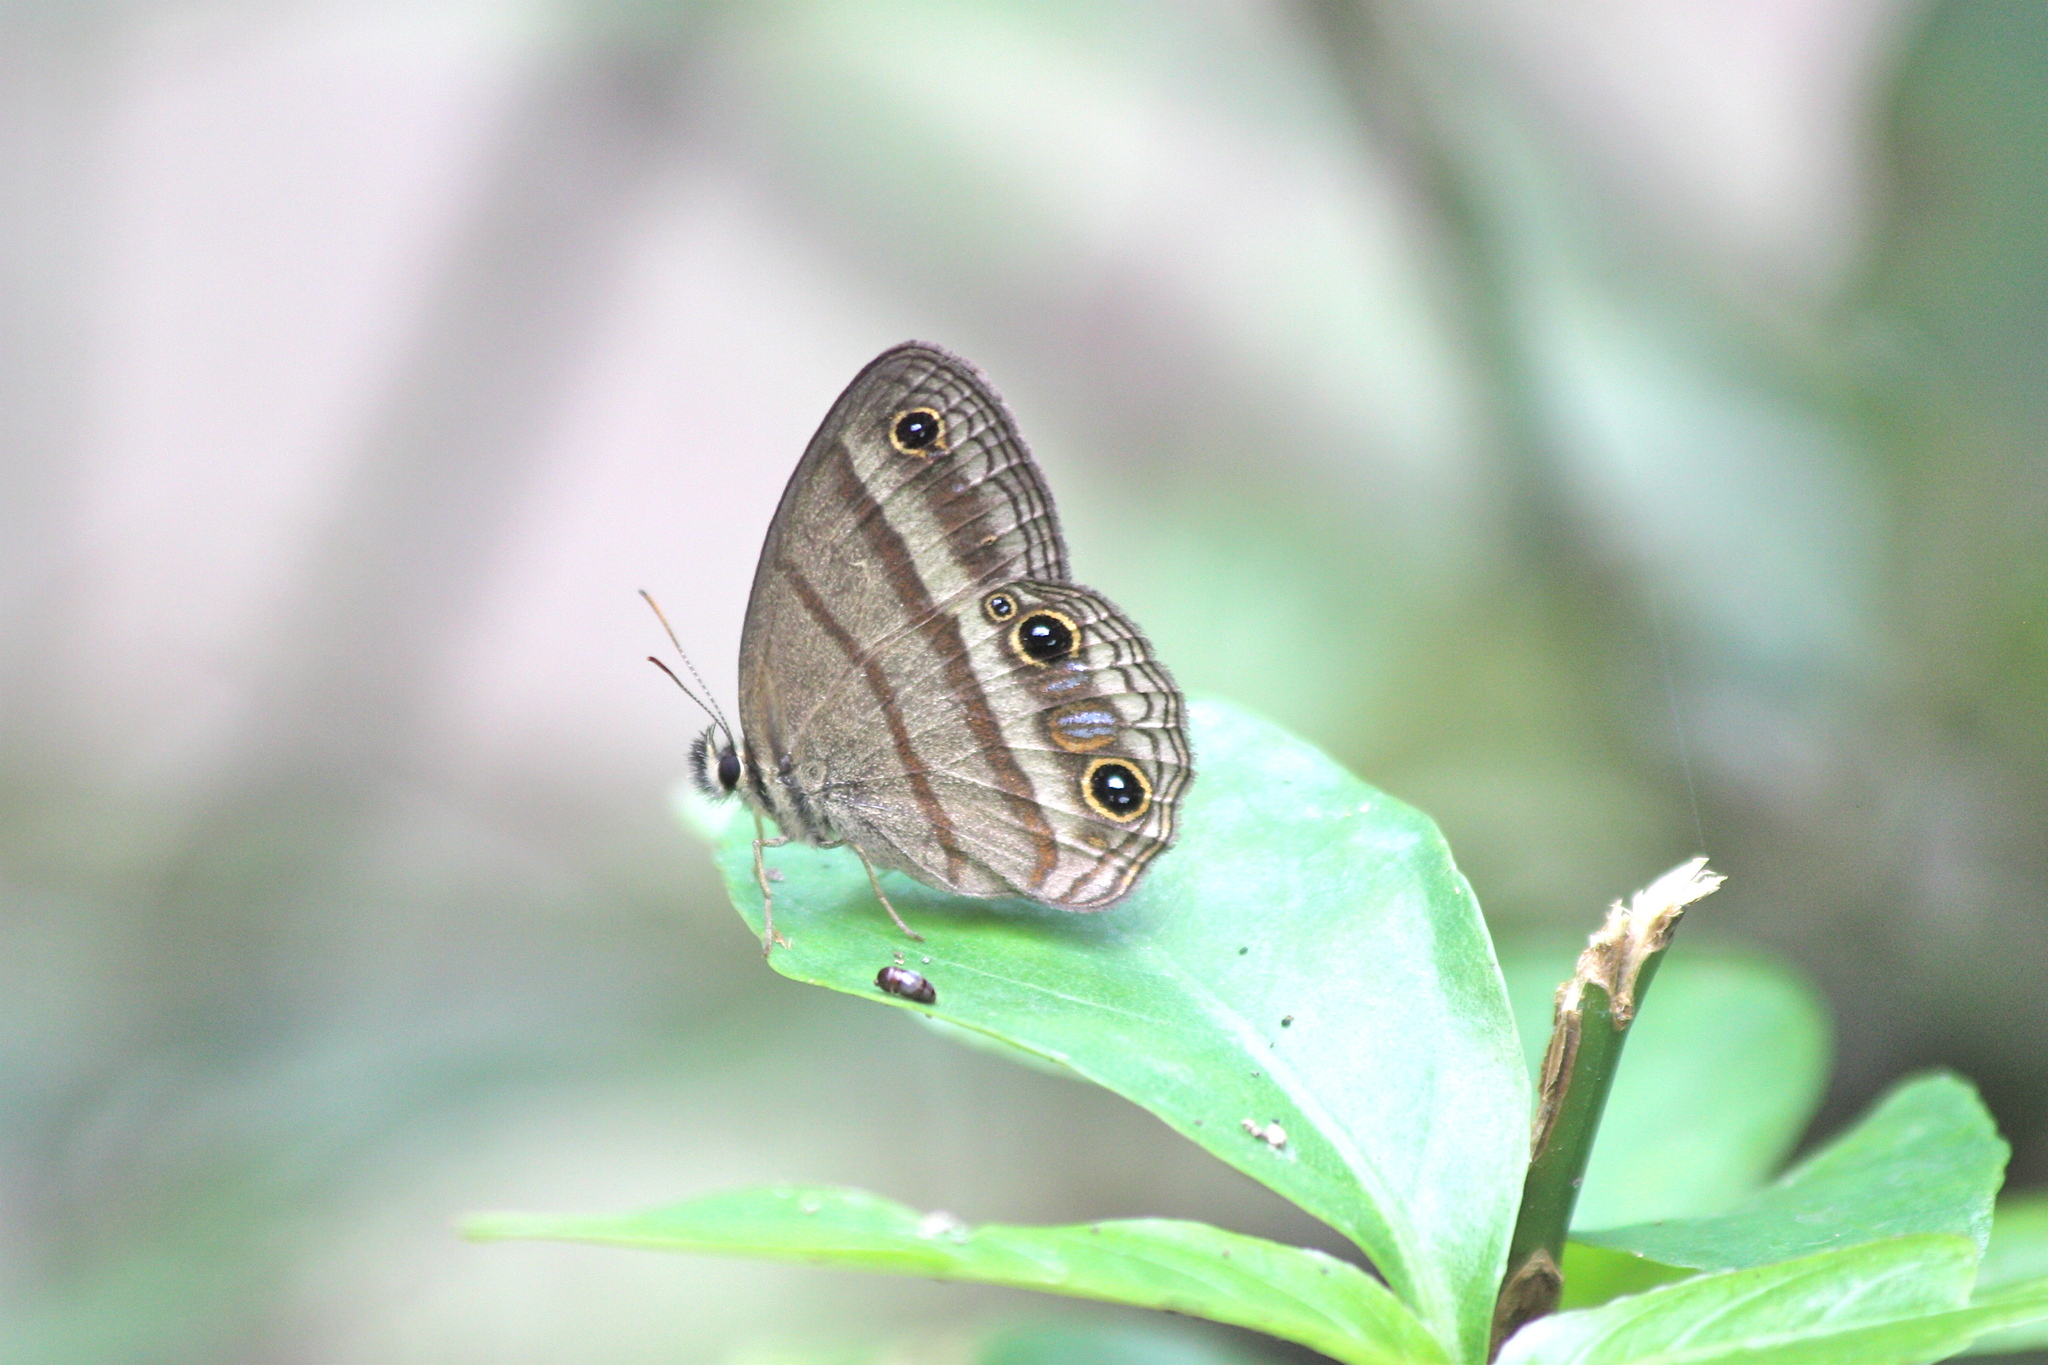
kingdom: Animalia
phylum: Arthropoda
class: Insecta
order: Lepidoptera
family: Nymphalidae
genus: Euptychia
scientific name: Euptychia Cissia proba
